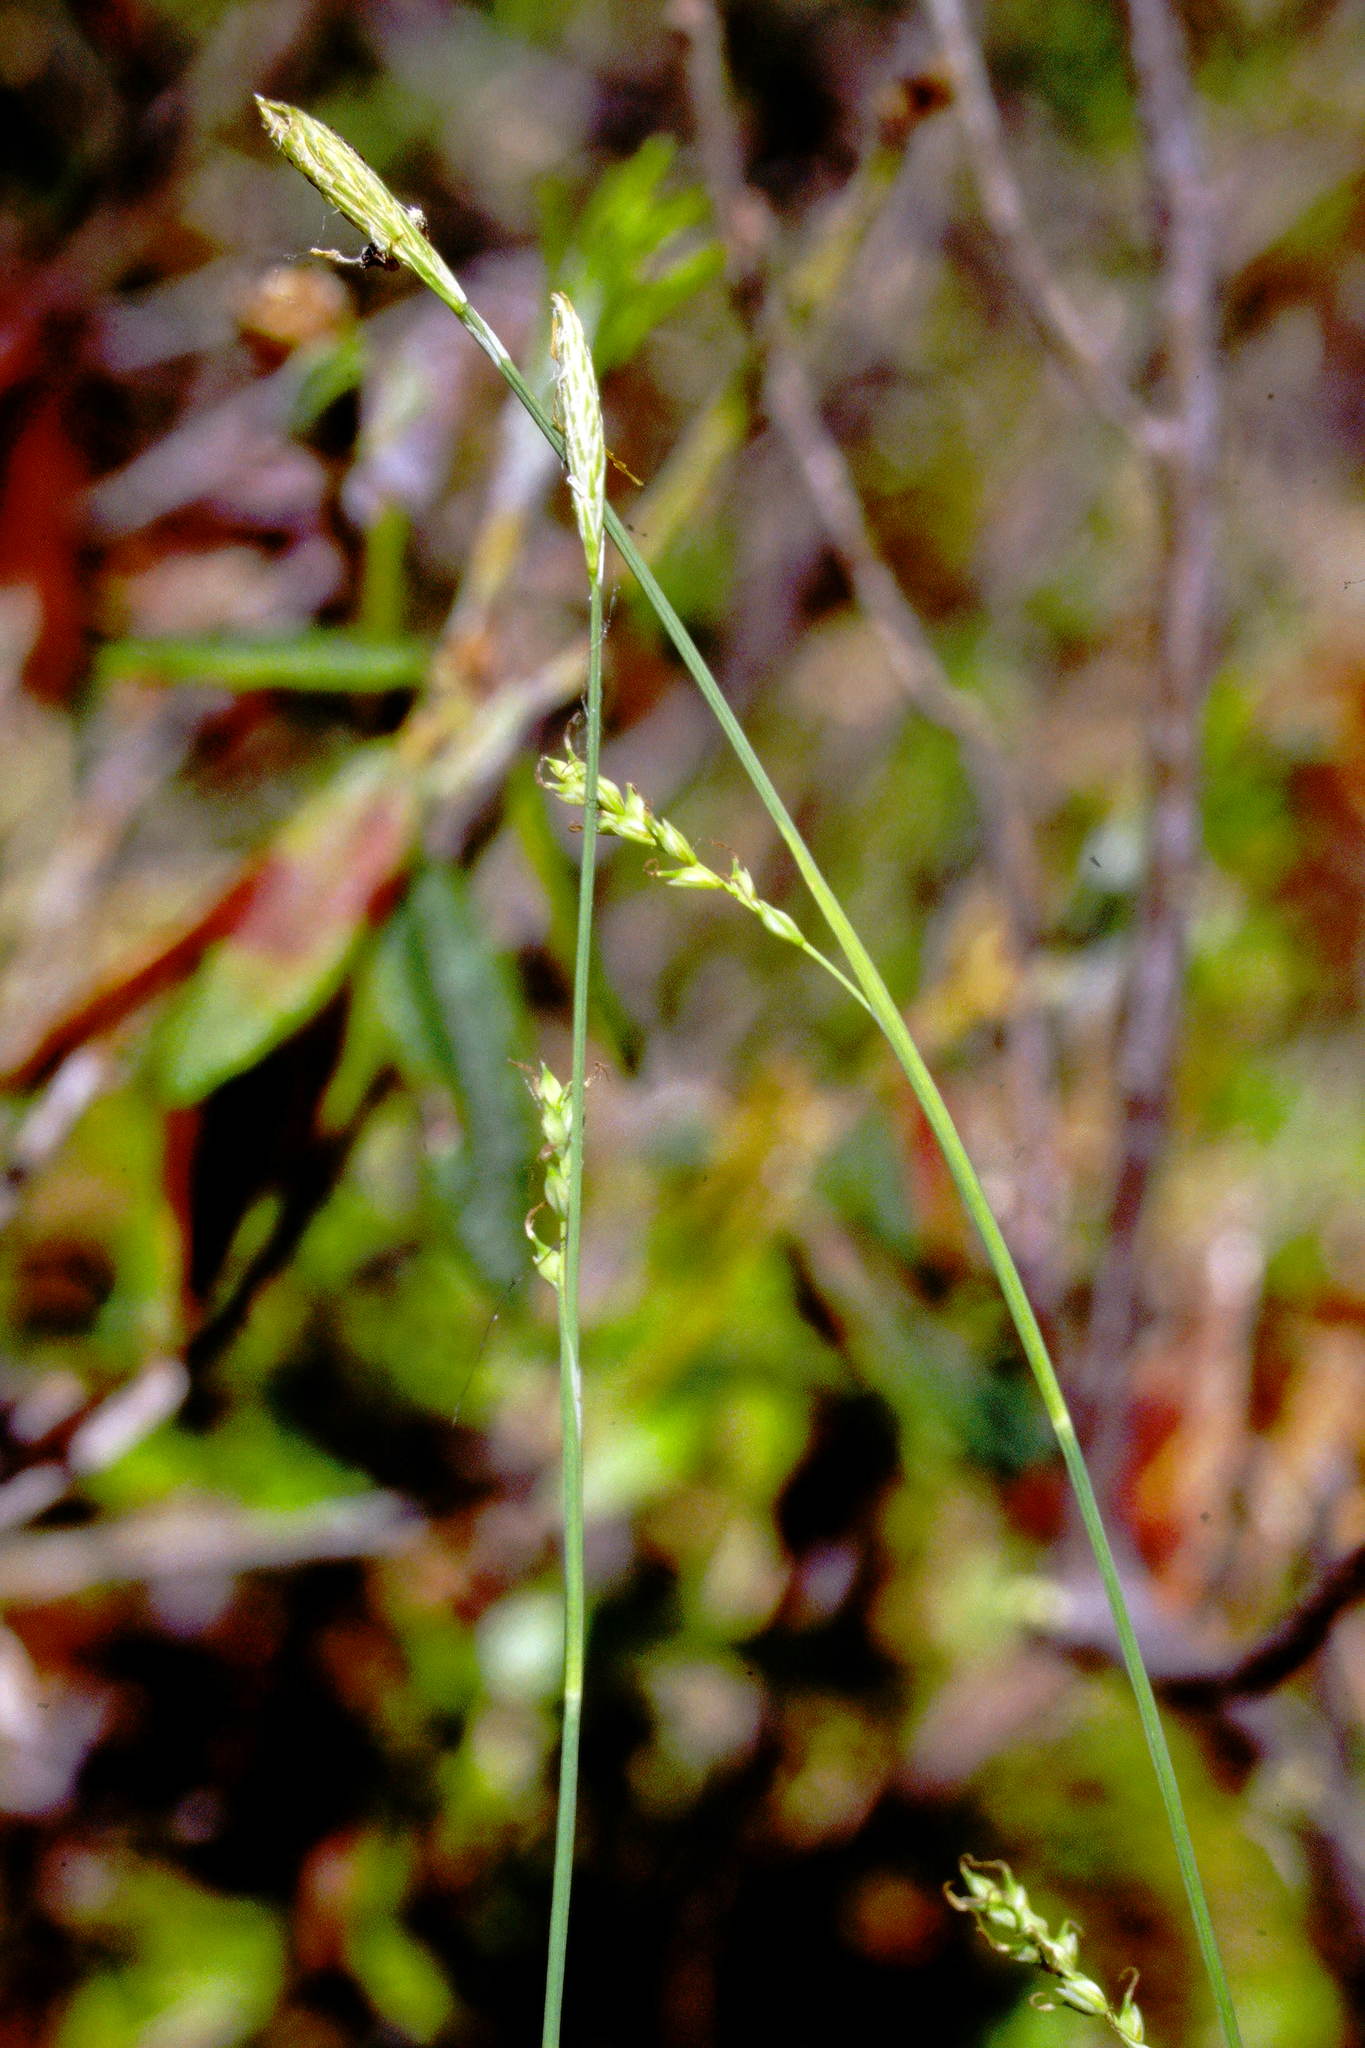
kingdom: Plantae
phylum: Tracheophyta
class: Liliopsida
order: Poales
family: Cyperaceae
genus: Carex
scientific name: Carex vaginata
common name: Sheathed sedge
